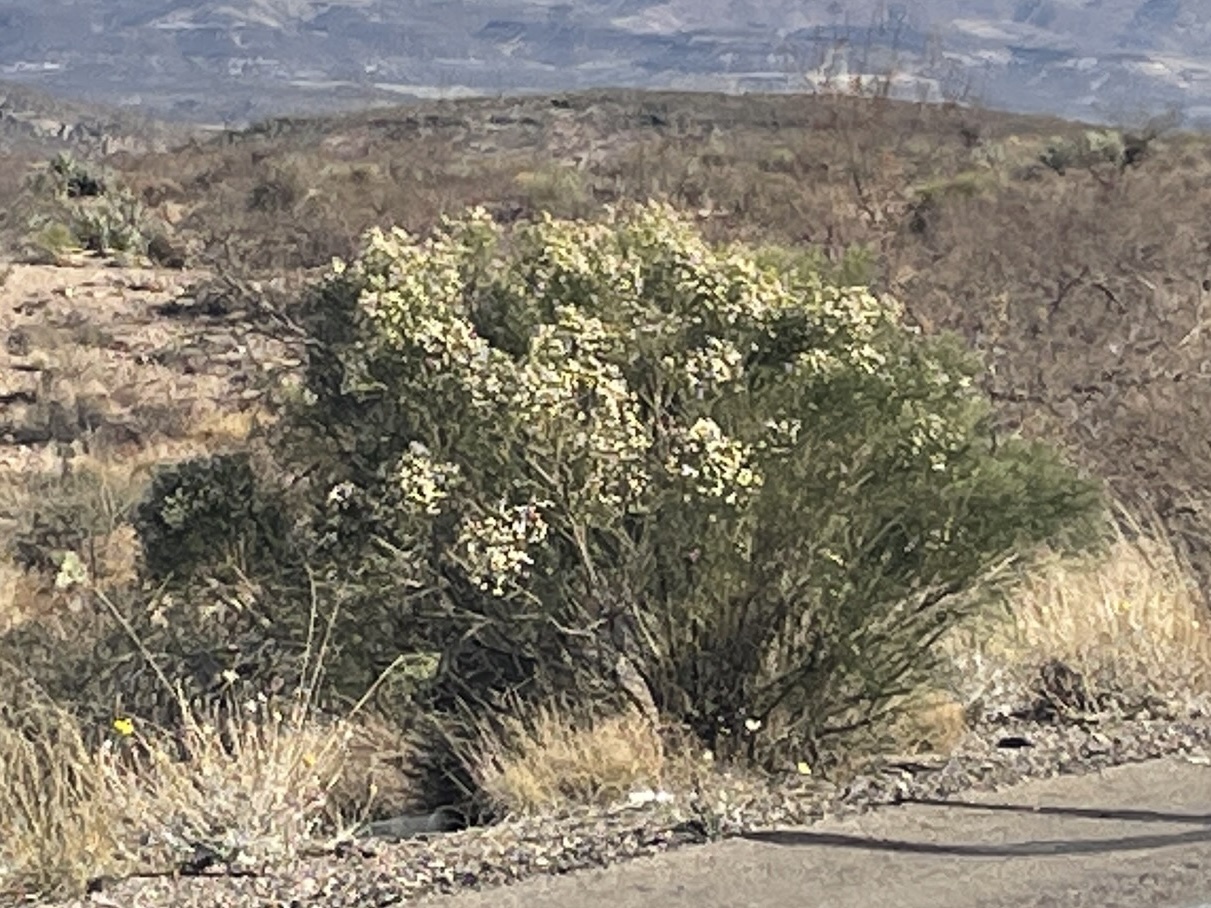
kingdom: Plantae
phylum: Tracheophyta
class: Magnoliopsida
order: Asterales
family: Asteraceae
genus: Baccharis
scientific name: Baccharis sarothroides
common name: Desert-broom
